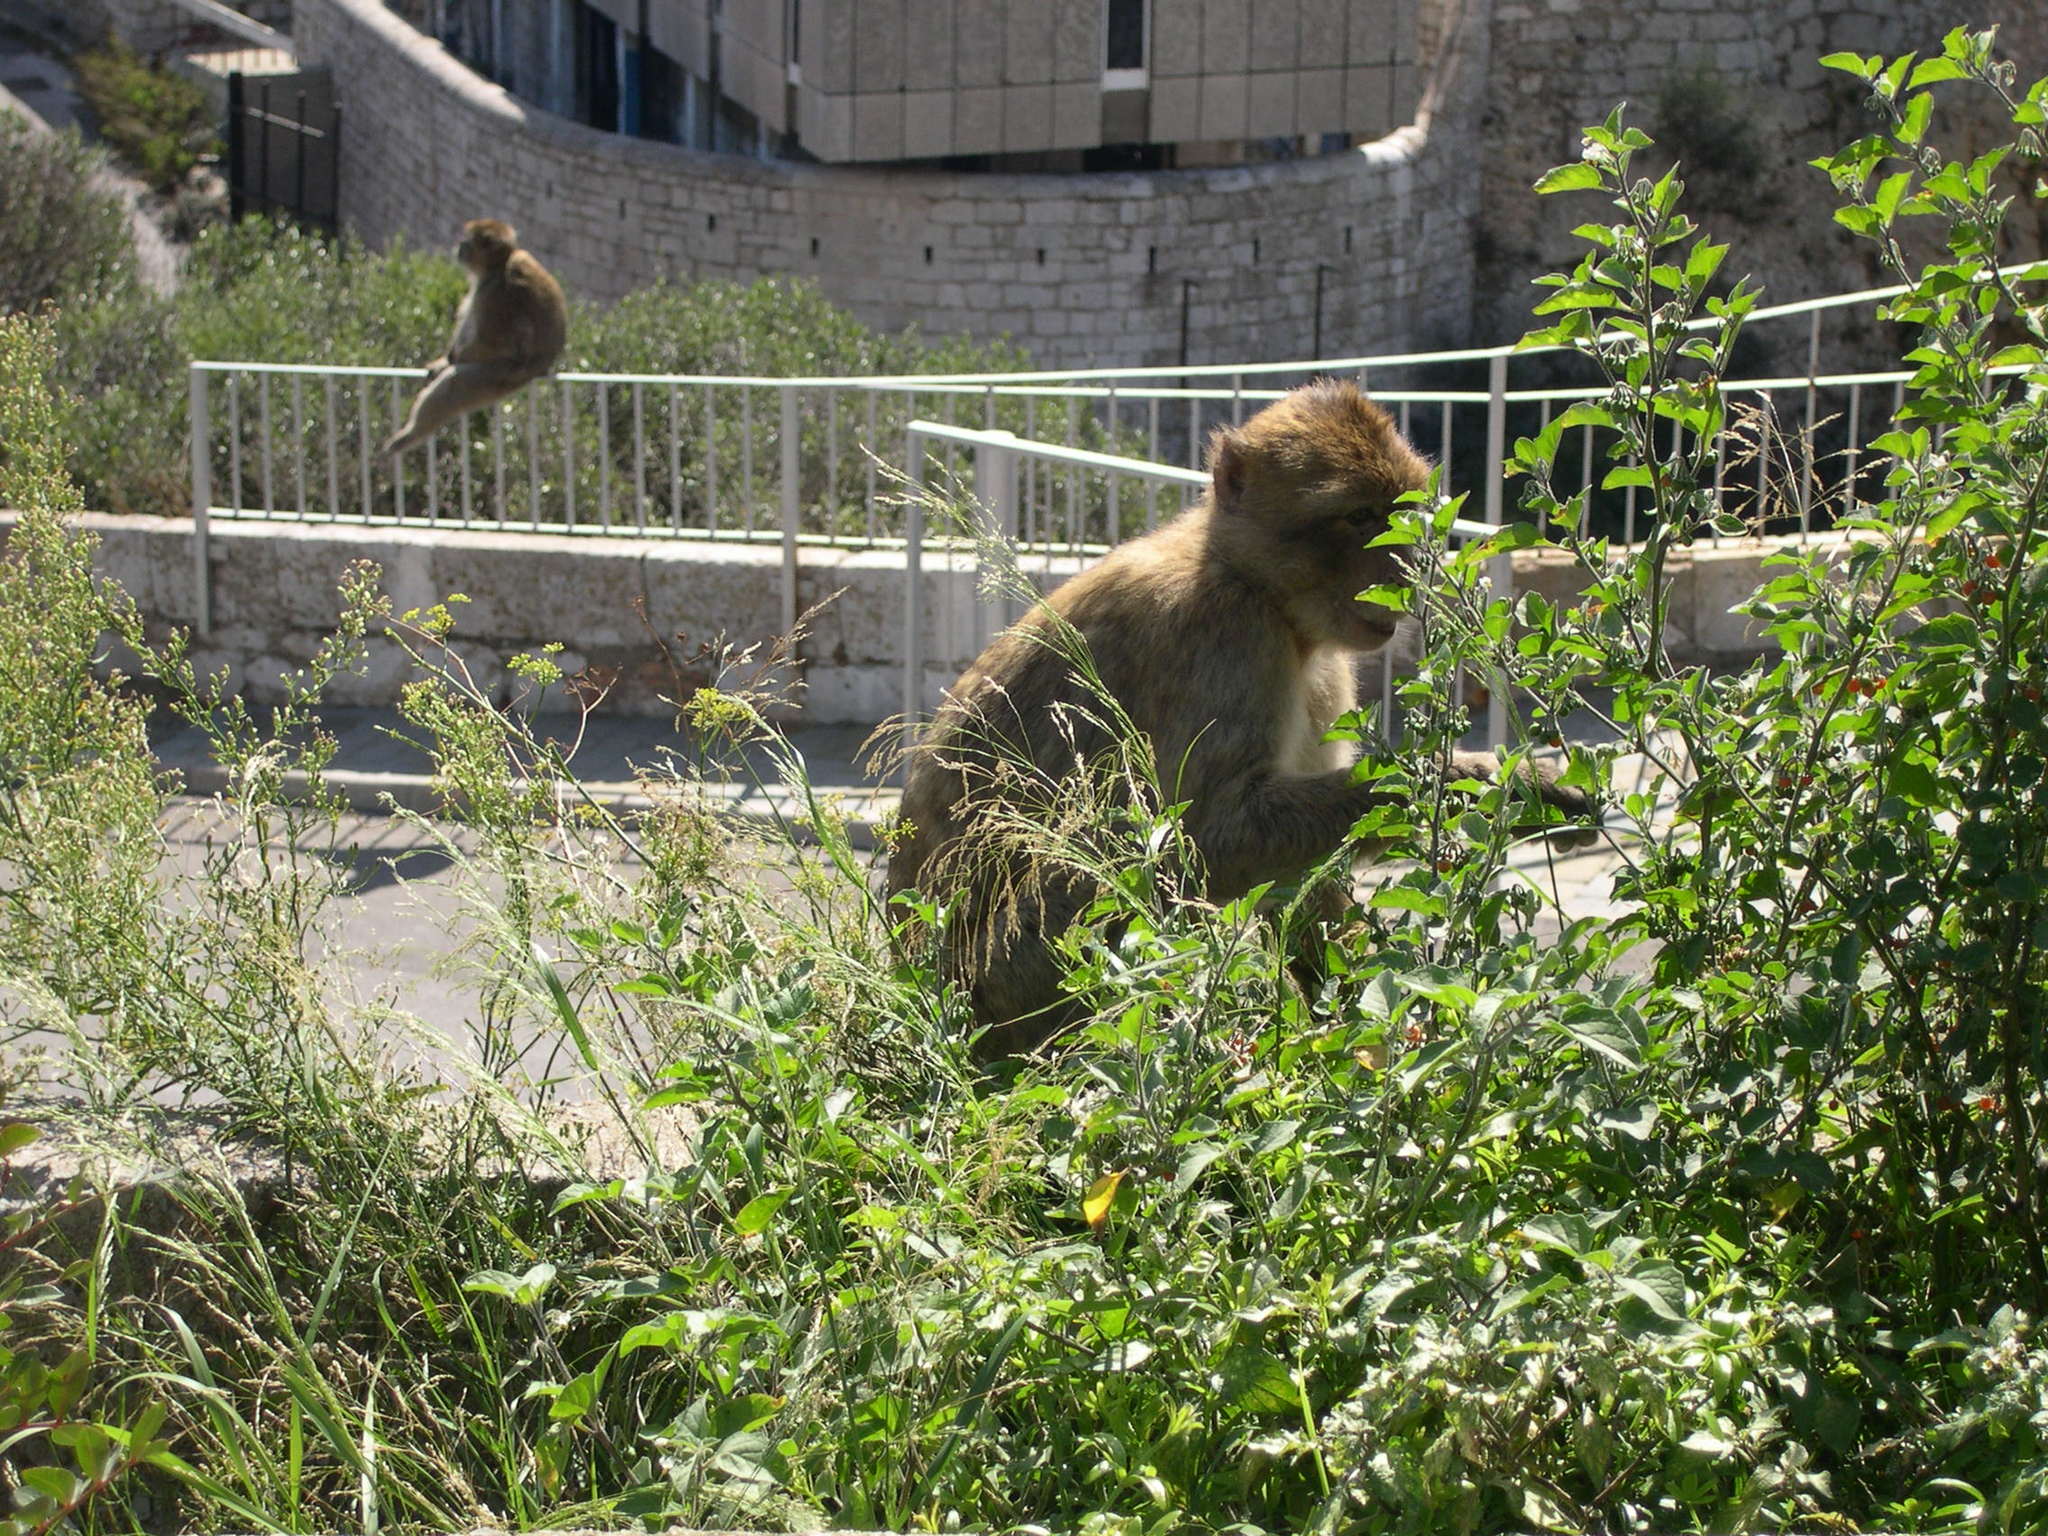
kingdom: Animalia
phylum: Chordata
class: Mammalia
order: Primates
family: Cercopithecidae
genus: Macaca
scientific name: Macaca sylvanus
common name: Barbary macaque
